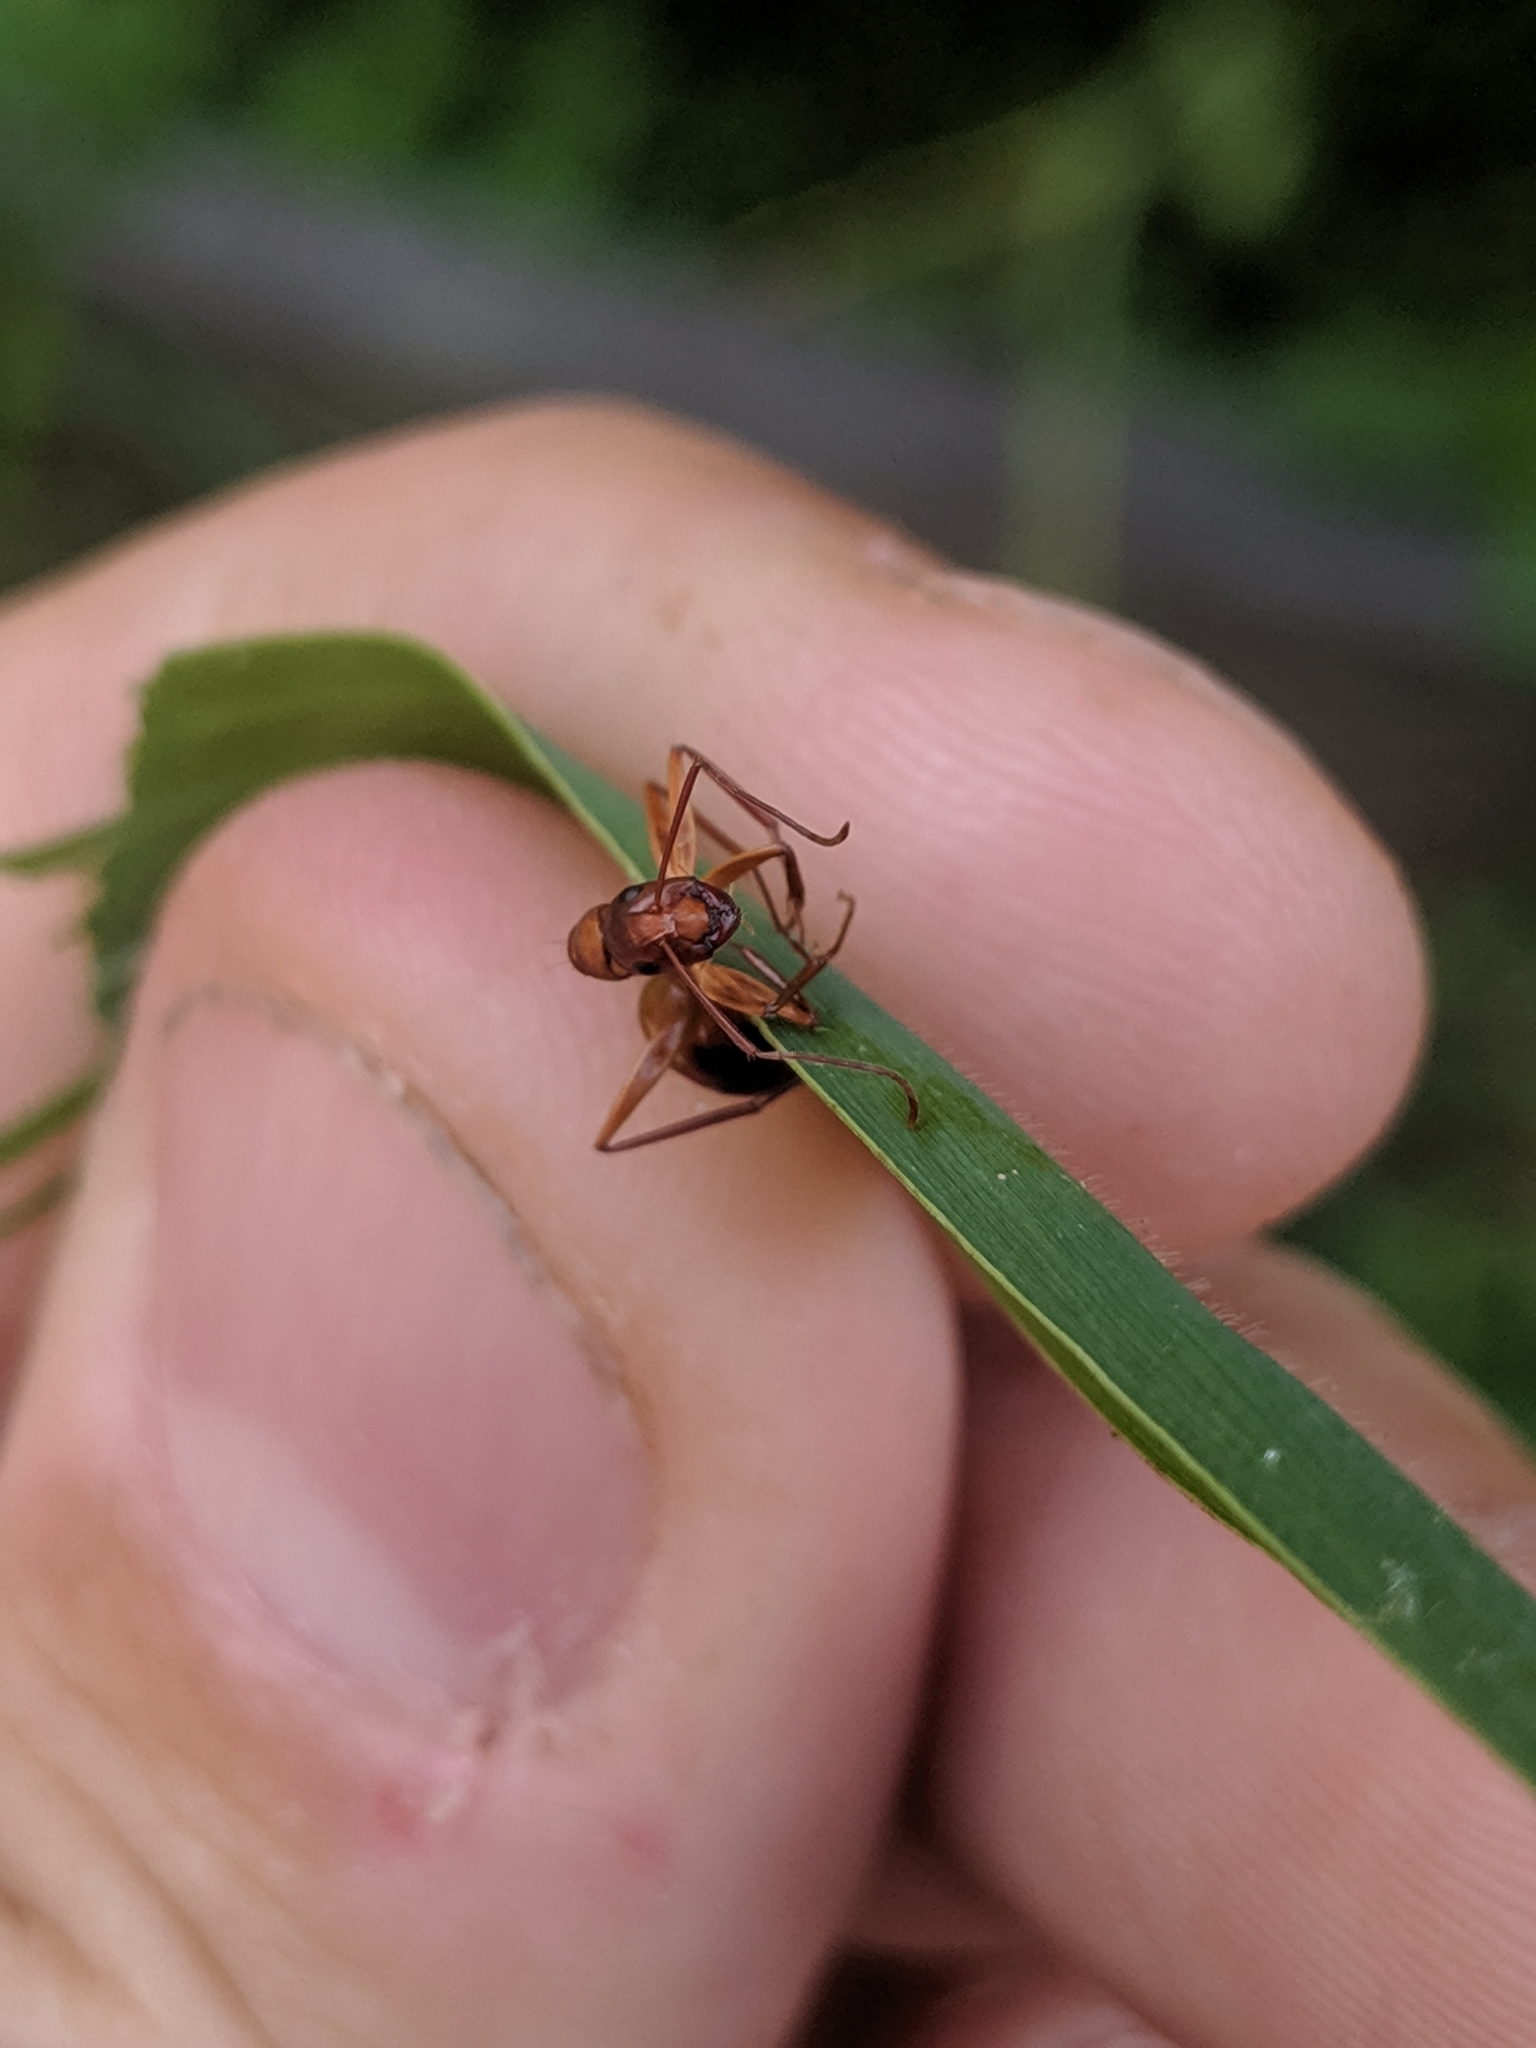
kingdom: Animalia
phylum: Arthropoda
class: Insecta
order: Hymenoptera
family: Formicidae
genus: Camponotus
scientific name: Camponotus castaneus
